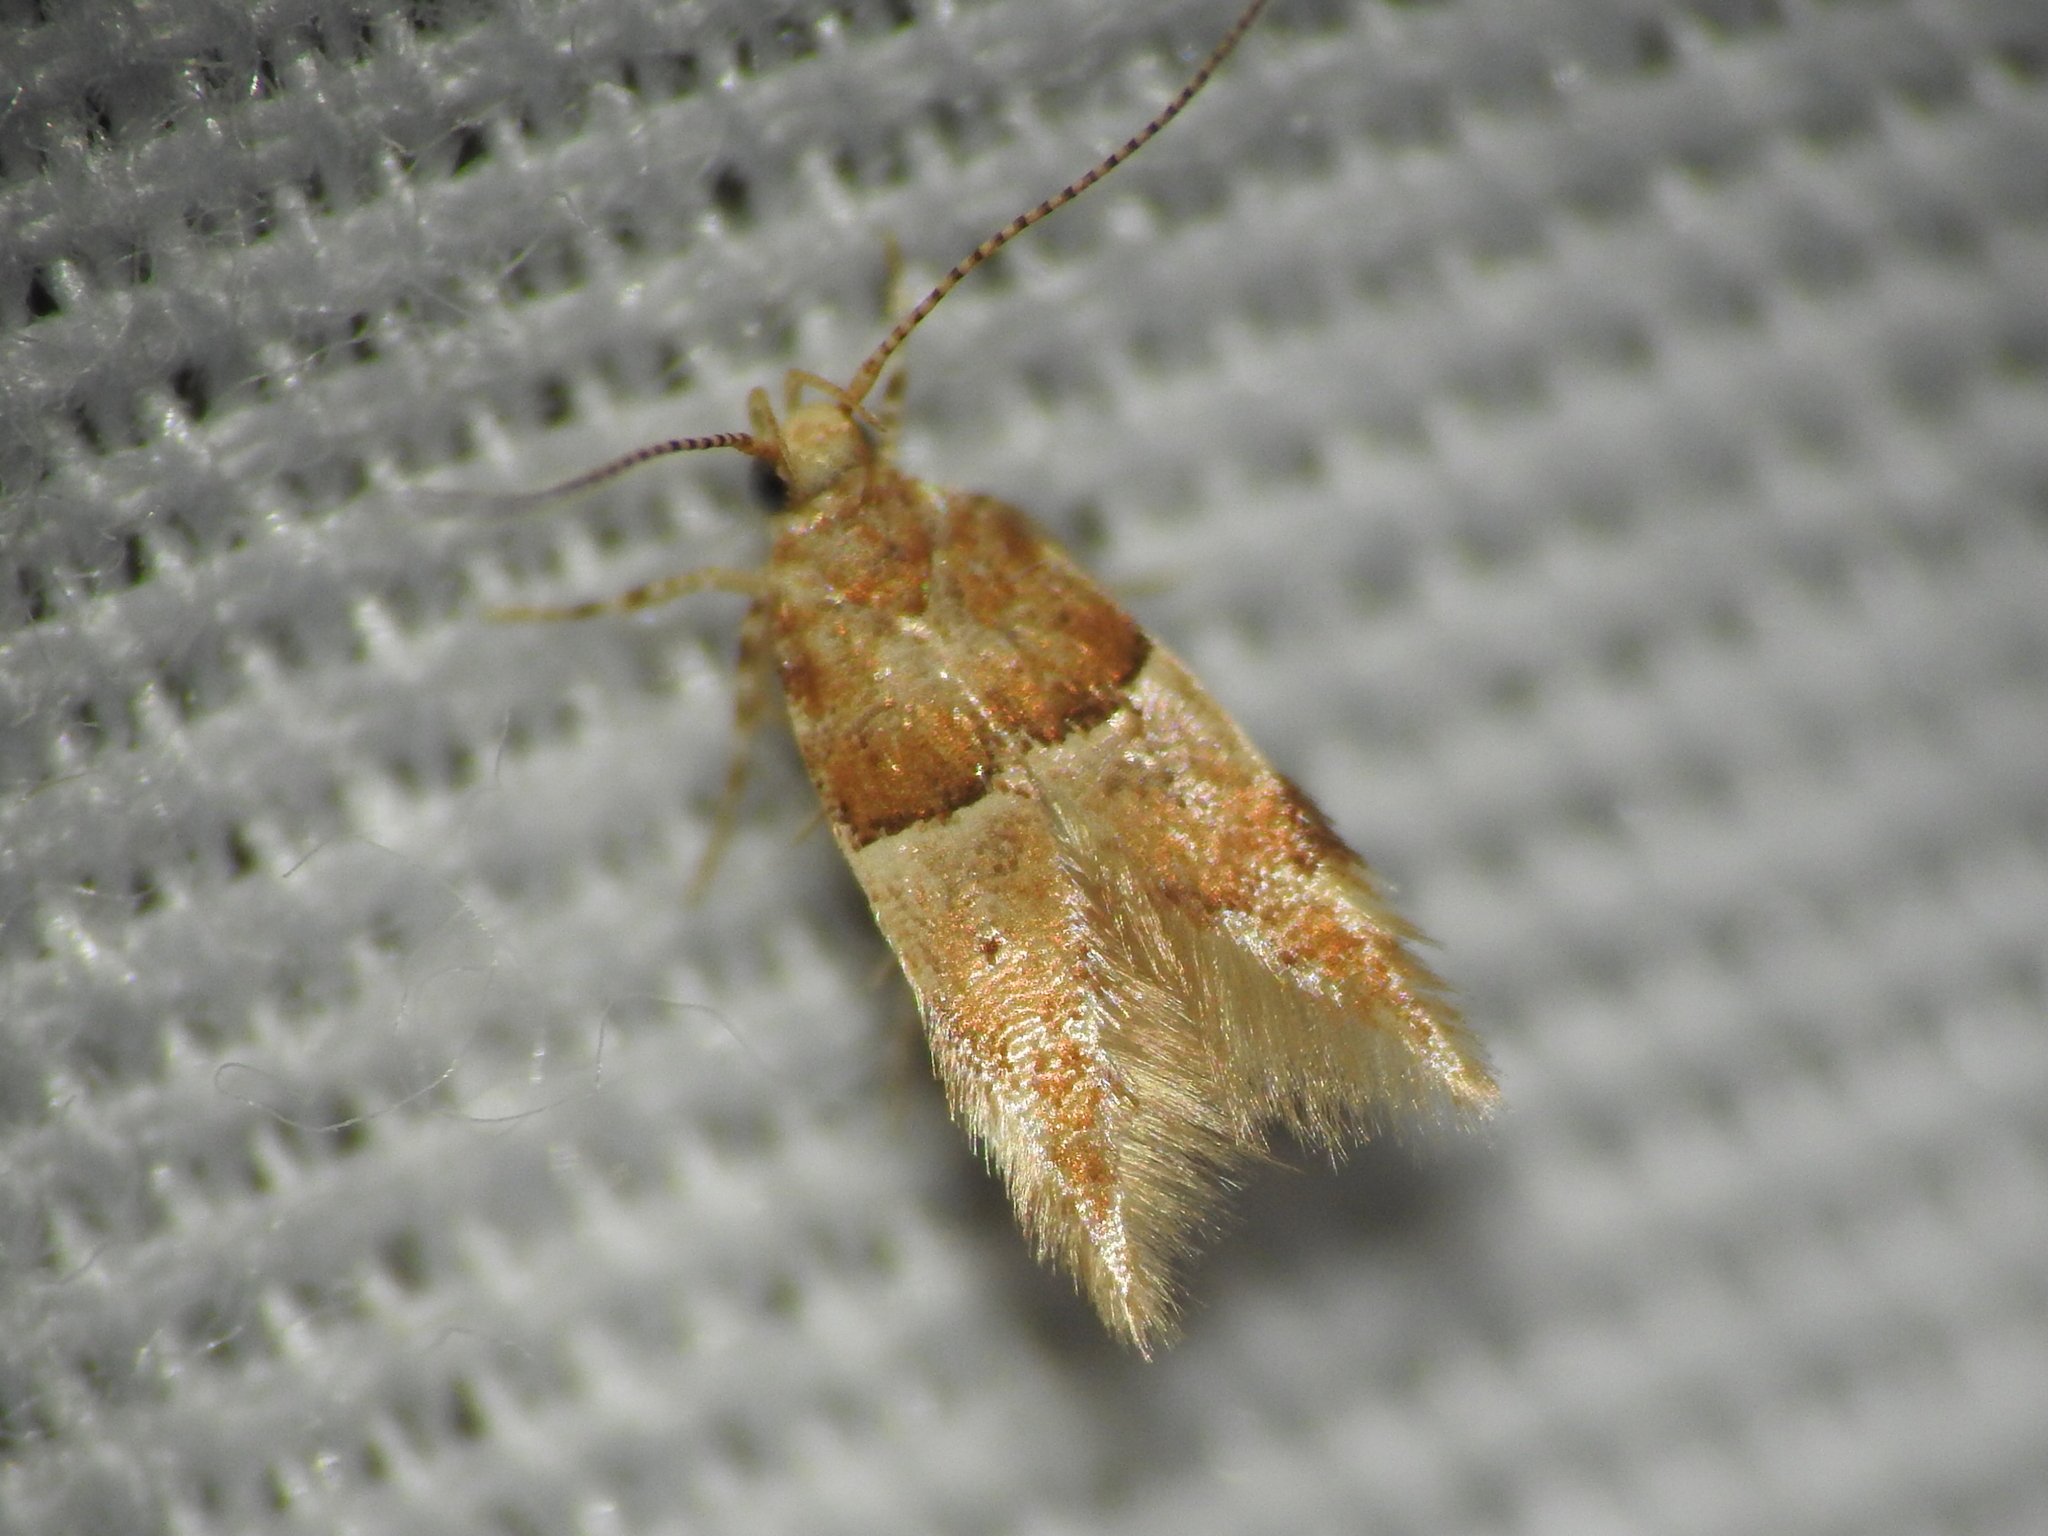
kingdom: Animalia
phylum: Arthropoda
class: Insecta
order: Lepidoptera
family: Gelechiidae
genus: Theisoa
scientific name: Theisoa constrictella
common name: Constricted twirler
